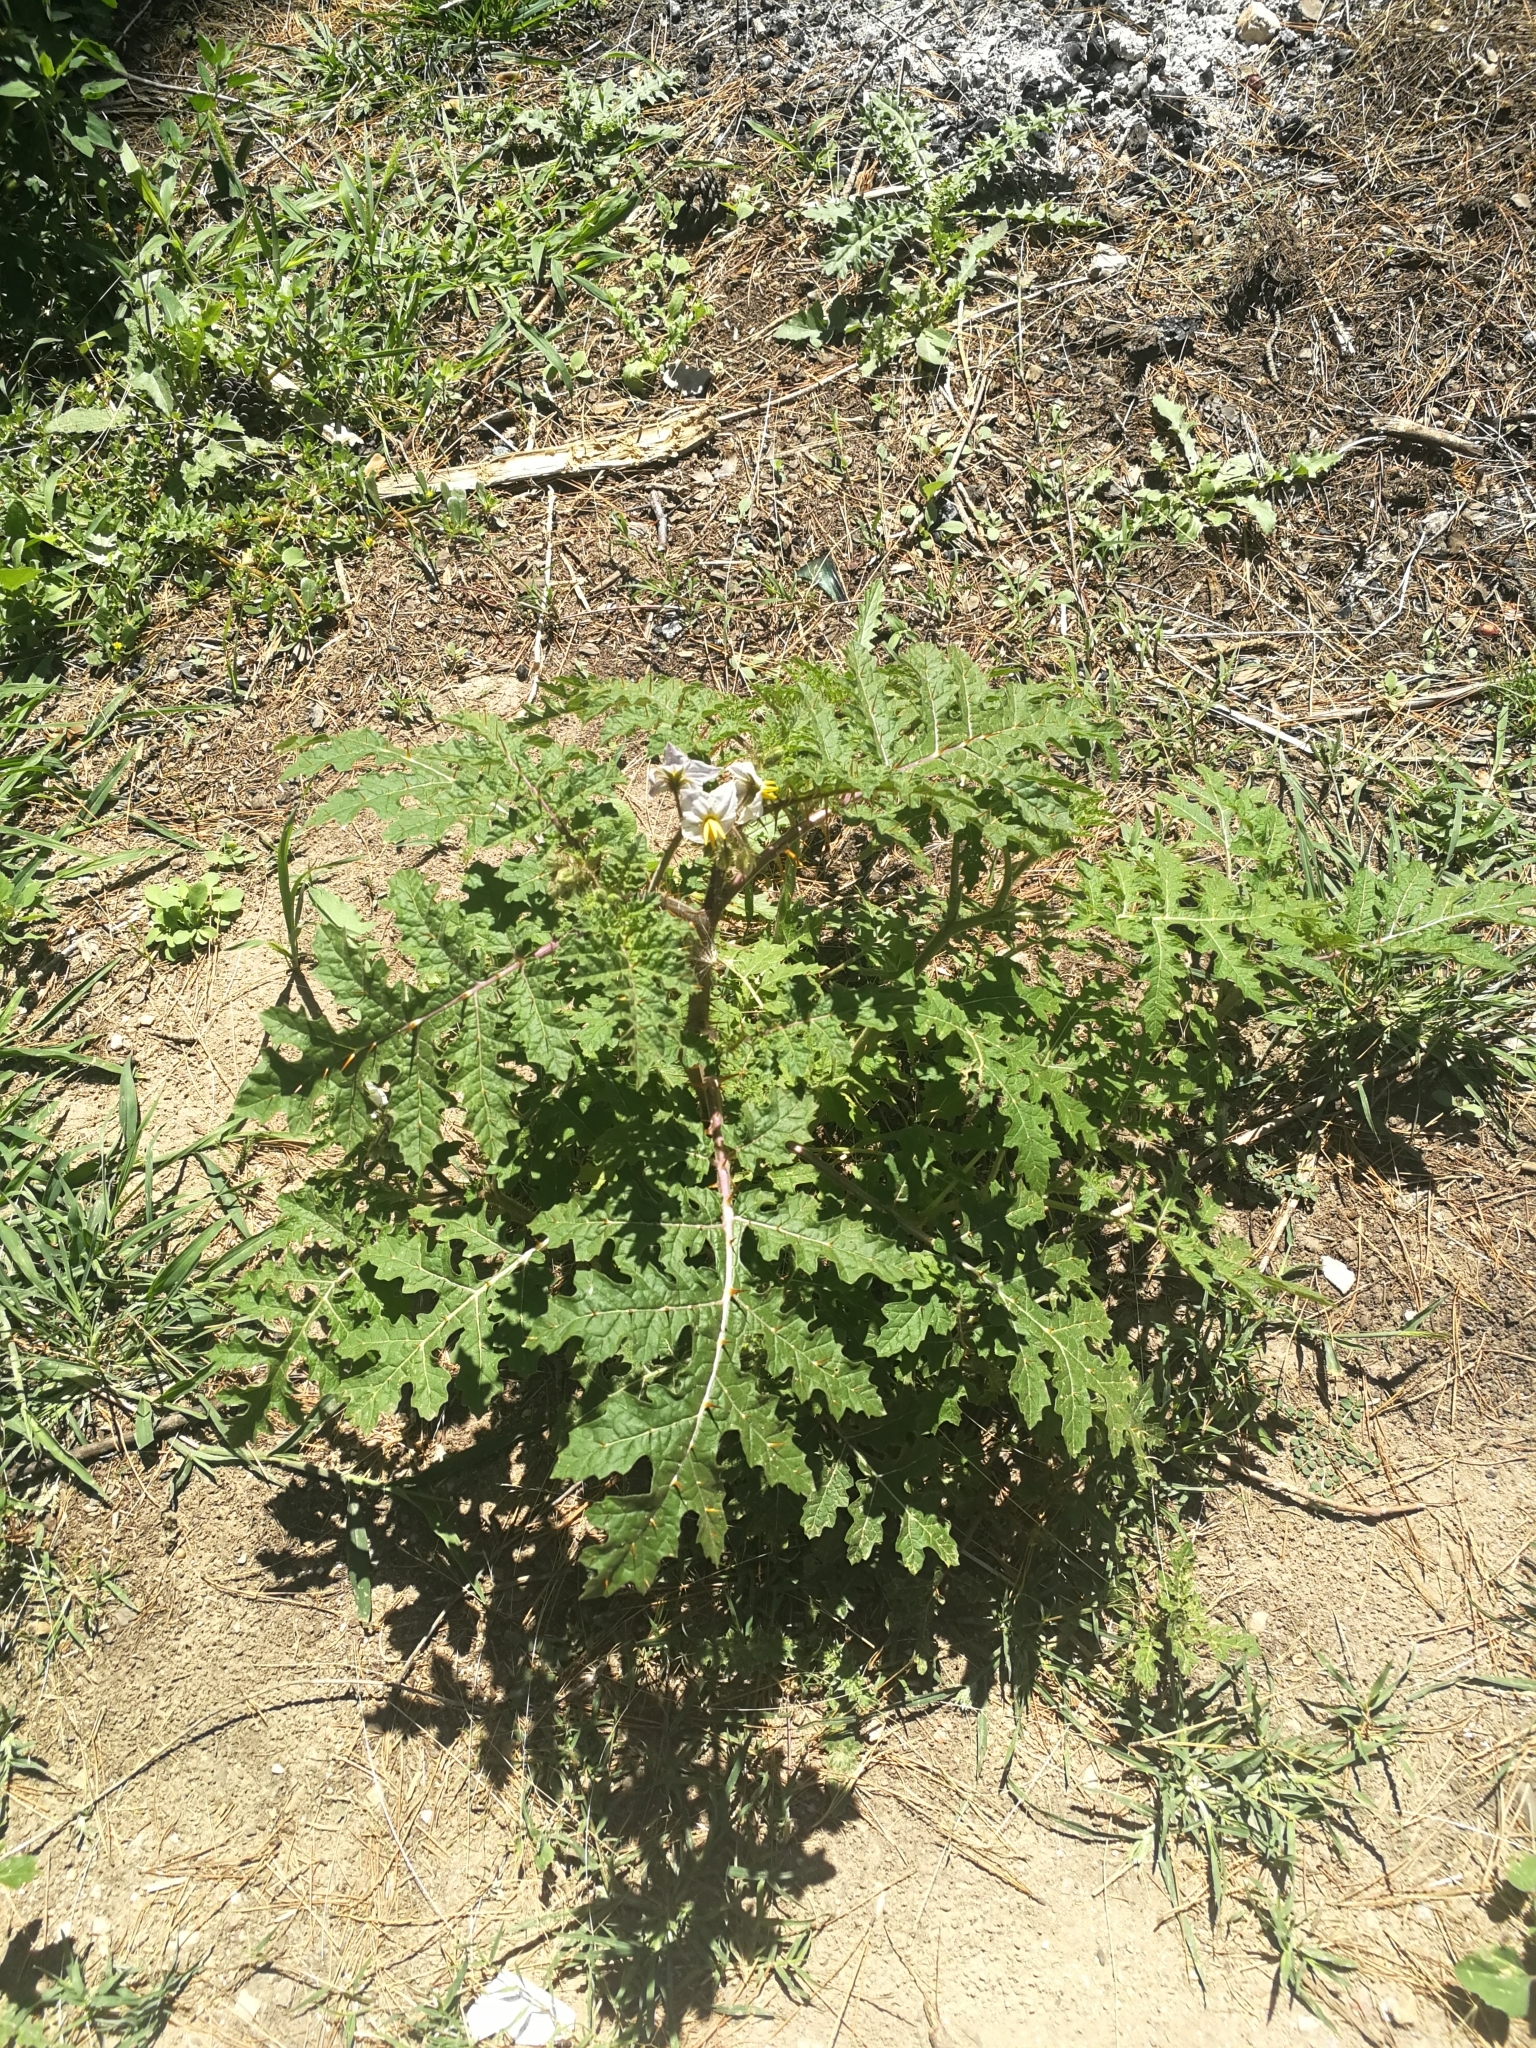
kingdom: Plantae
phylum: Tracheophyta
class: Magnoliopsida
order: Solanales
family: Solanaceae
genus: Solanum
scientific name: Solanum sisymbriifolium
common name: Red buffalo-bur
